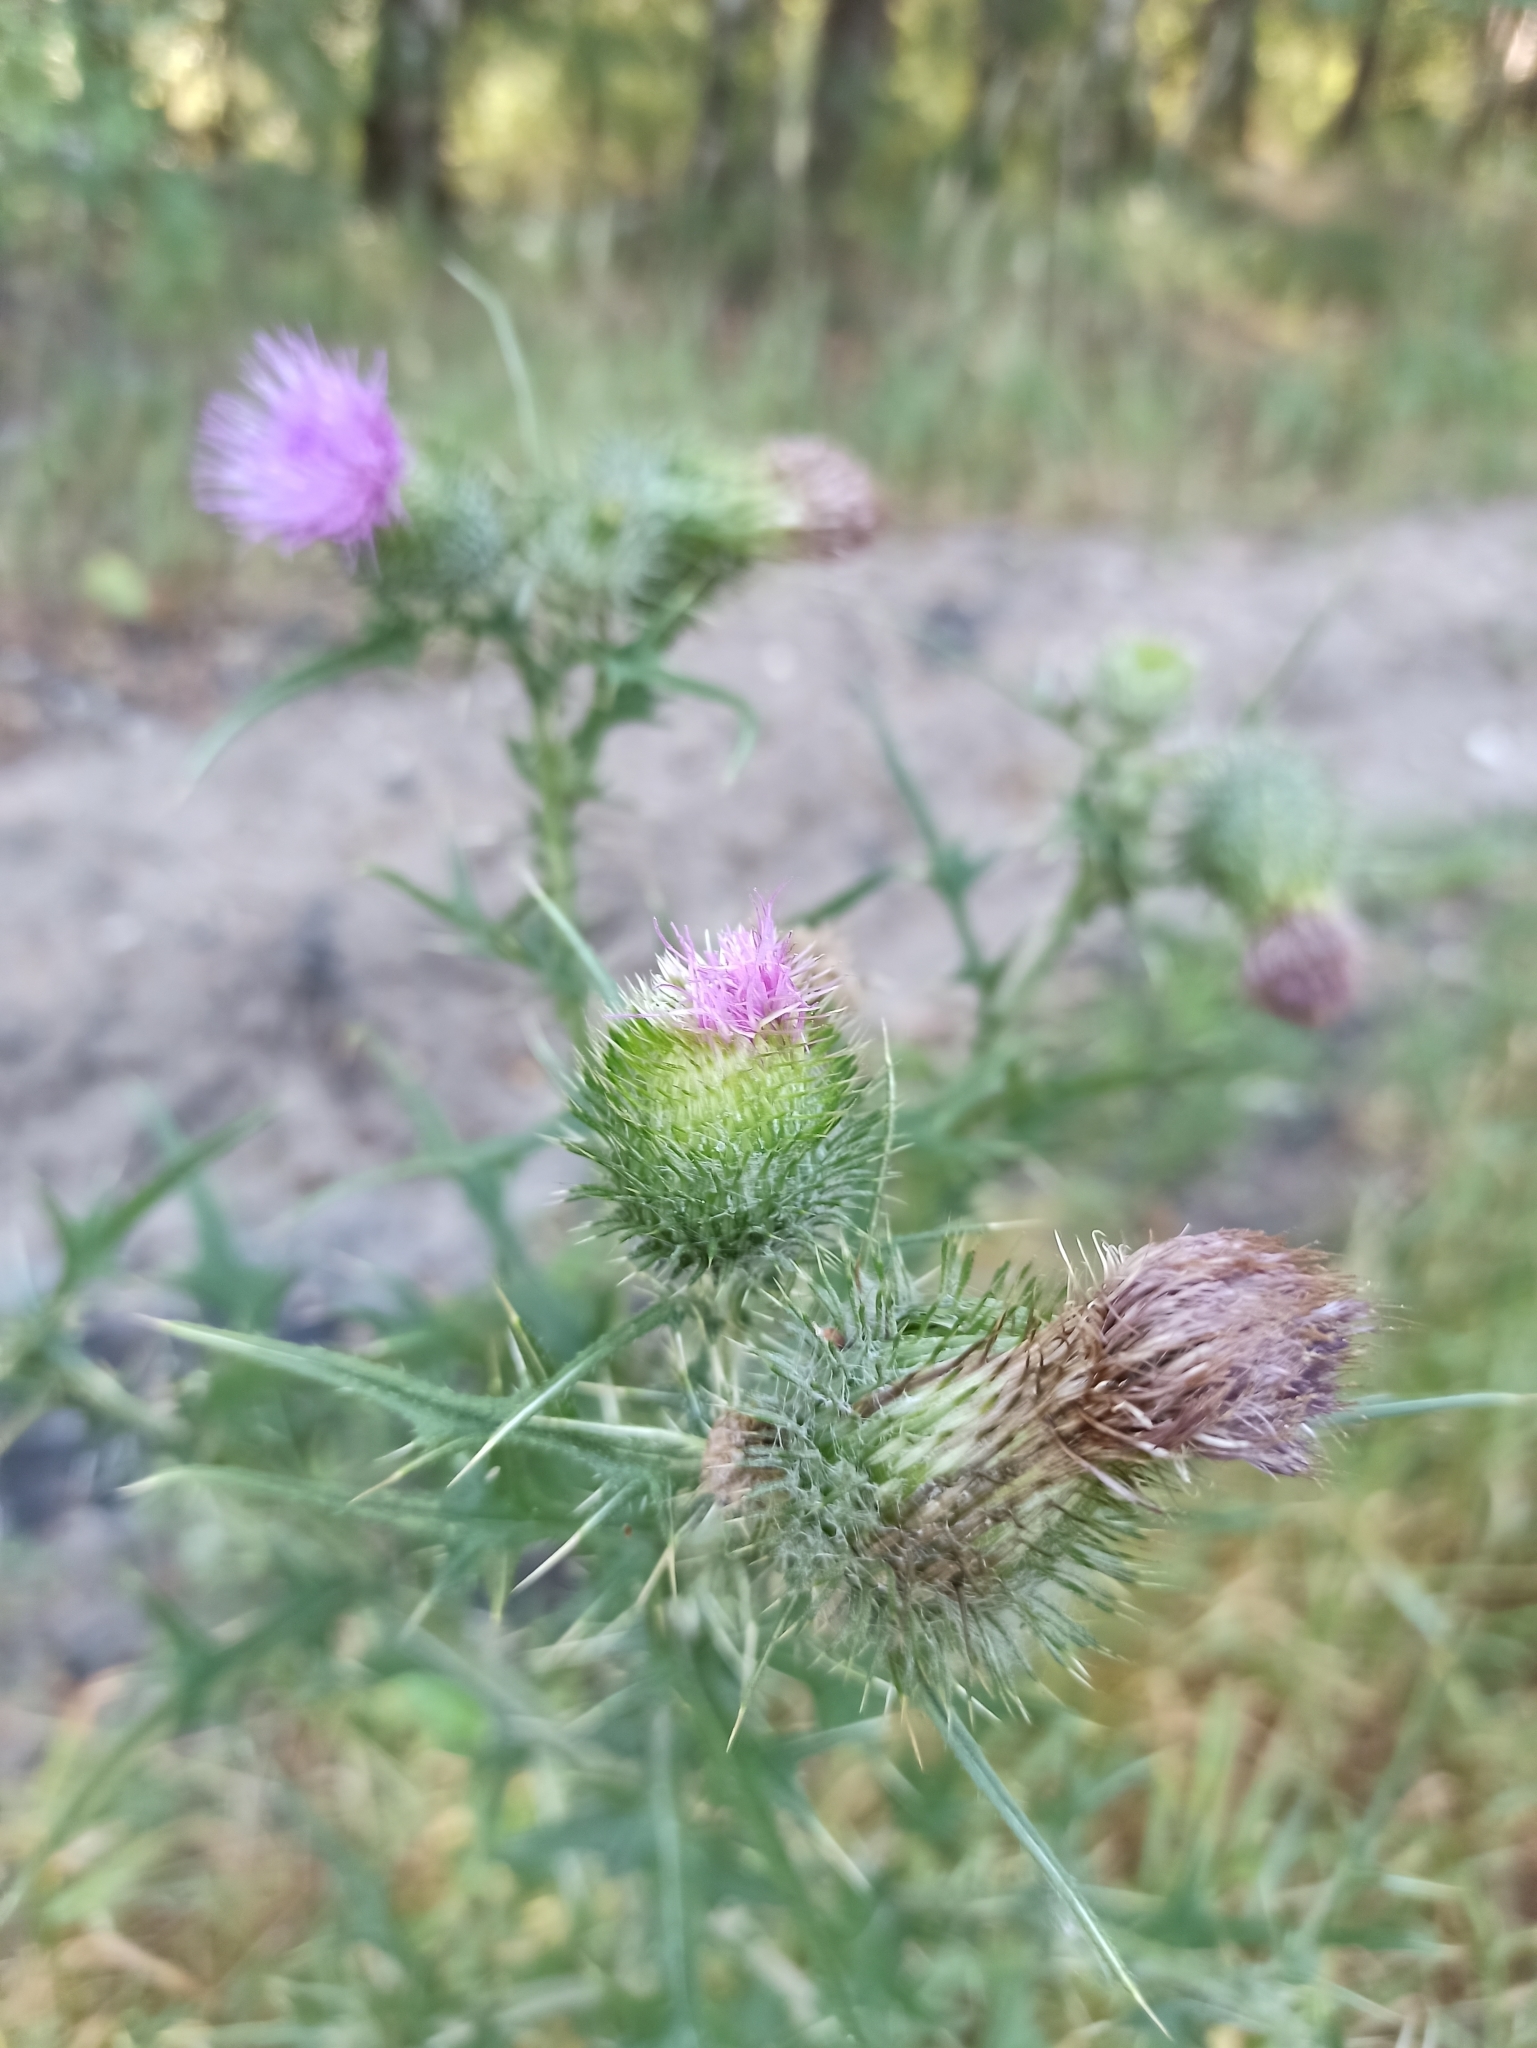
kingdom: Plantae
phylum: Tracheophyta
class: Magnoliopsida
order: Asterales
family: Asteraceae
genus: Cirsium
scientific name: Cirsium vulgare
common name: Bull thistle
